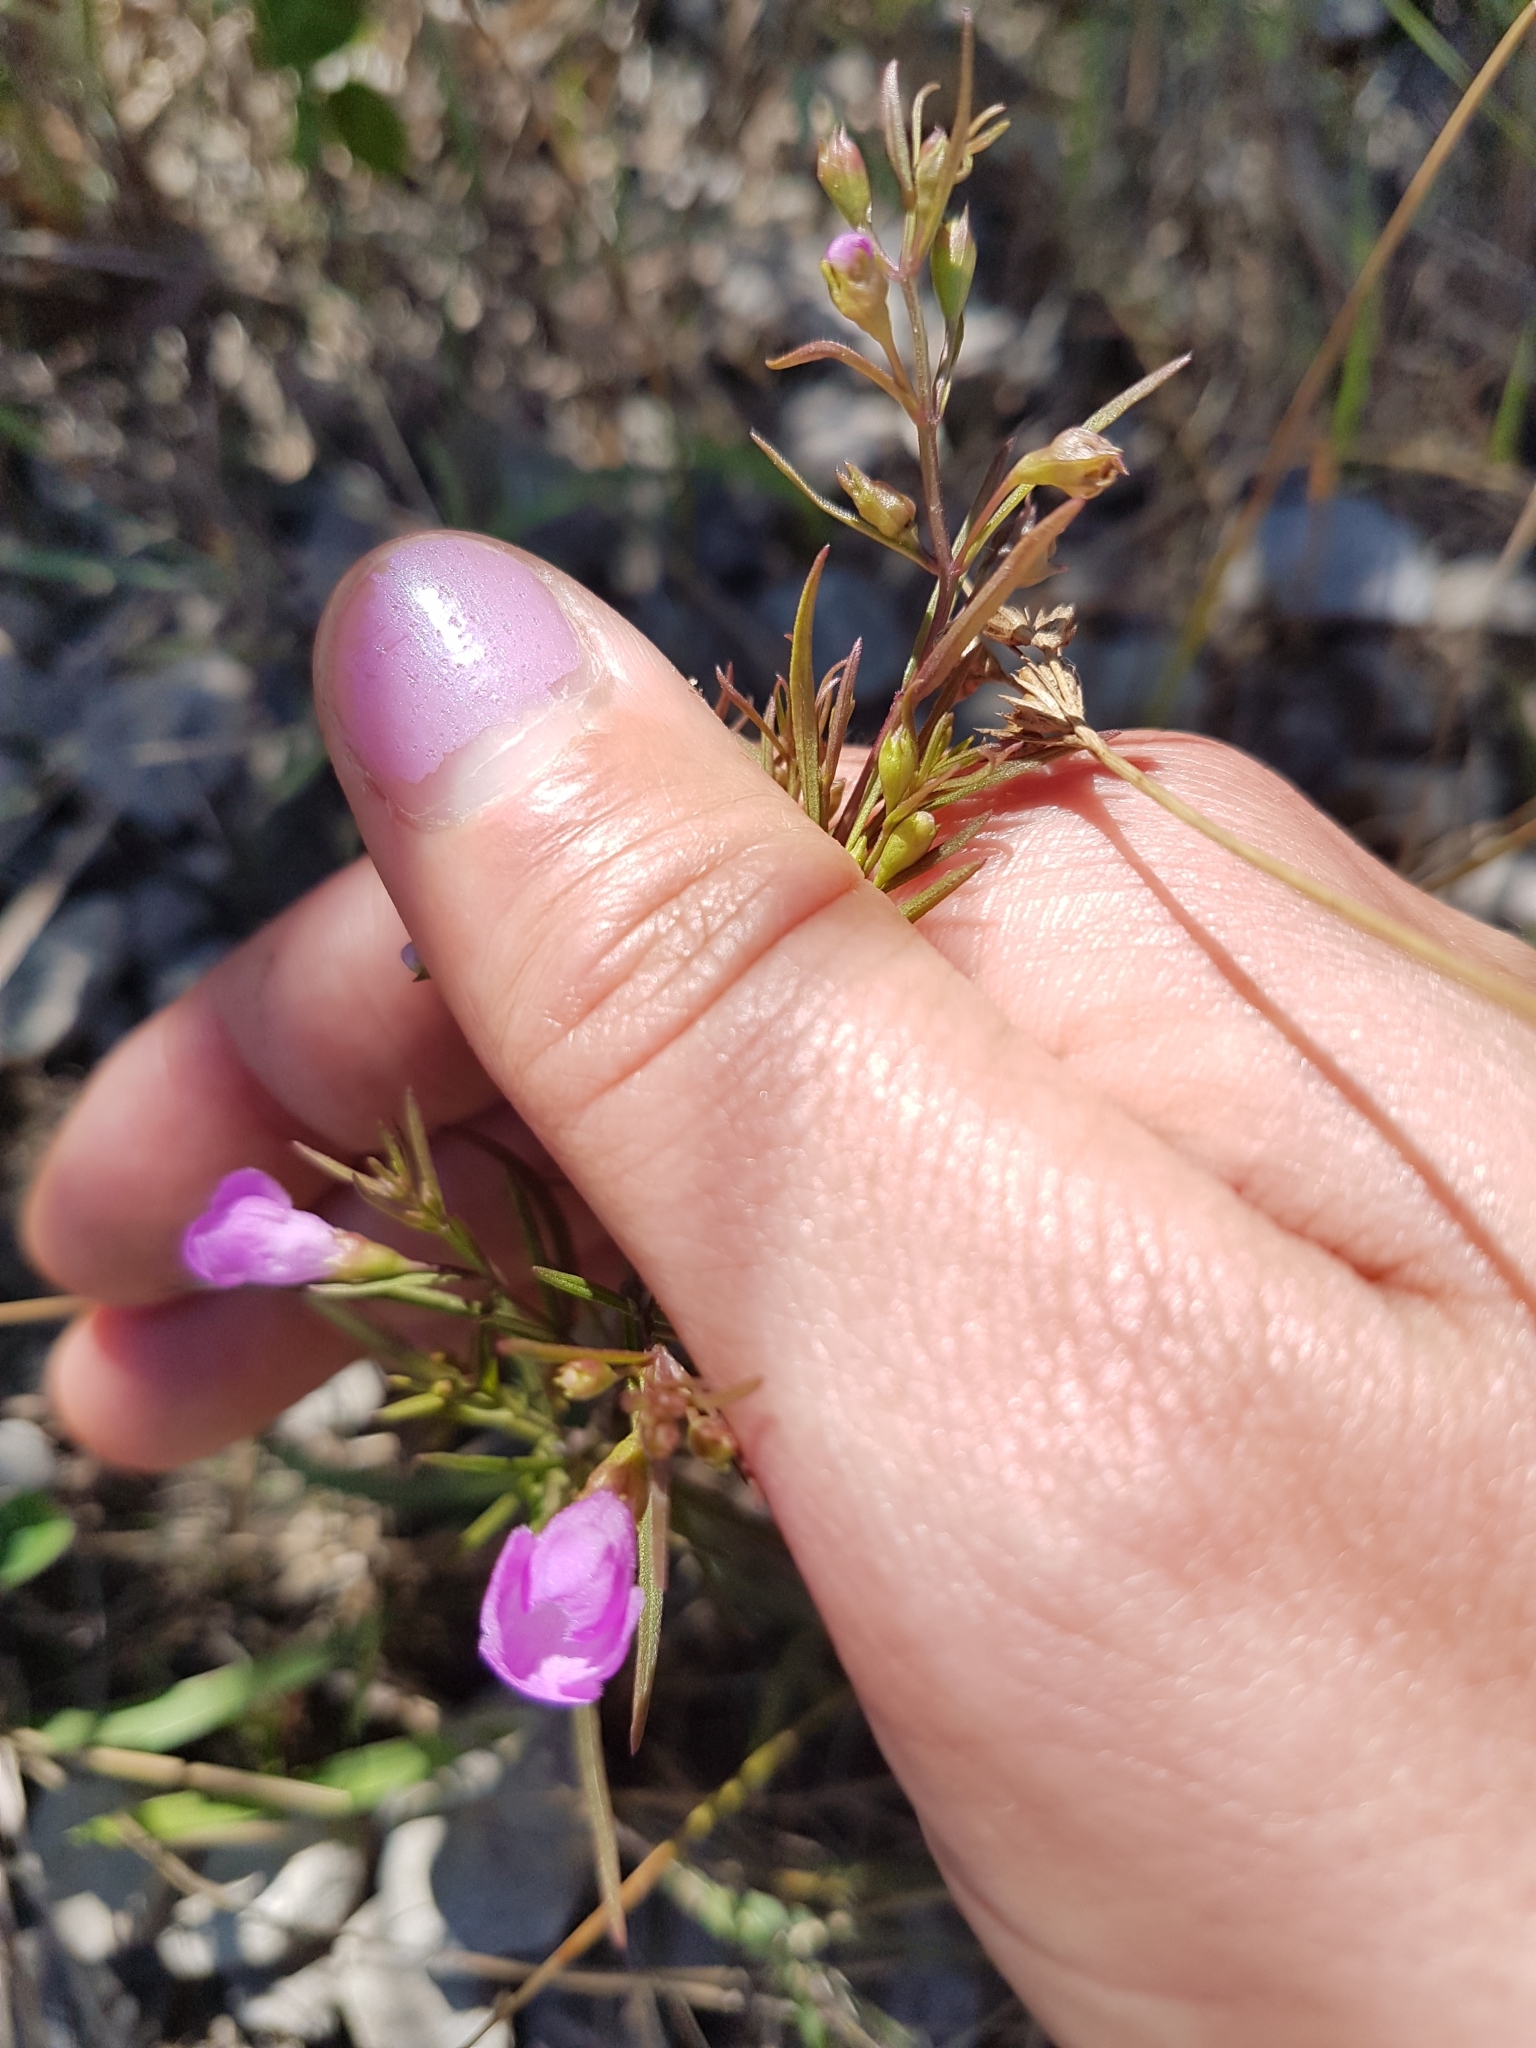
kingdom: Plantae
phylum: Tracheophyta
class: Magnoliopsida
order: Lamiales
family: Orobanchaceae
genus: Agalinis
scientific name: Agalinis purpurea
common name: Purple false foxglove
